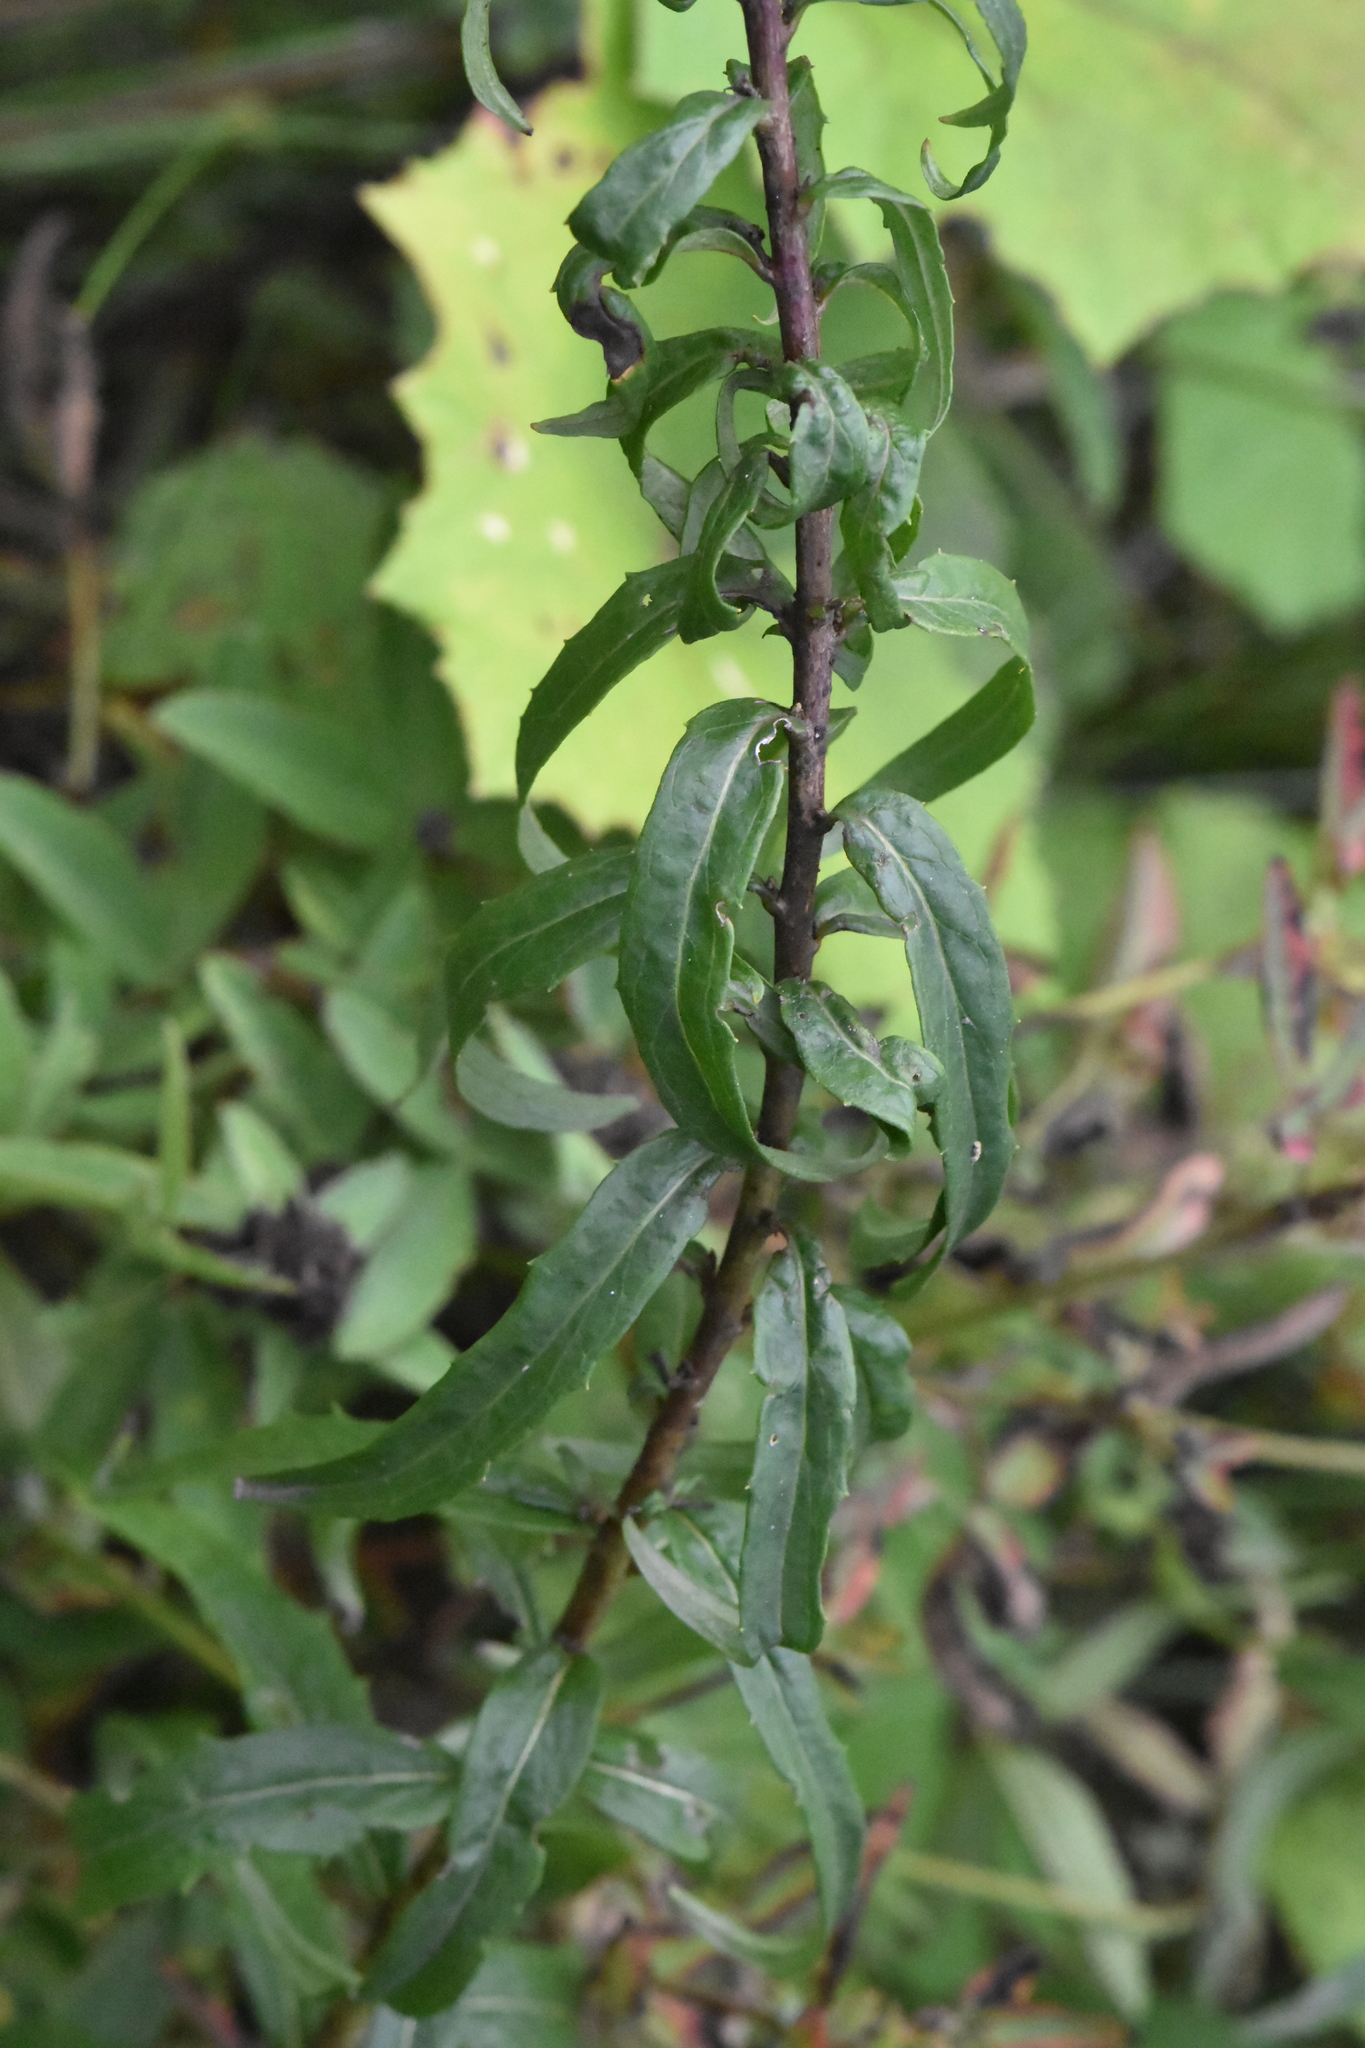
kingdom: Plantae
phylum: Tracheophyta
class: Magnoliopsida
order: Asterales
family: Asteraceae
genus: Hieracium
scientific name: Hieracium umbellatum
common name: Northern hawkweed
